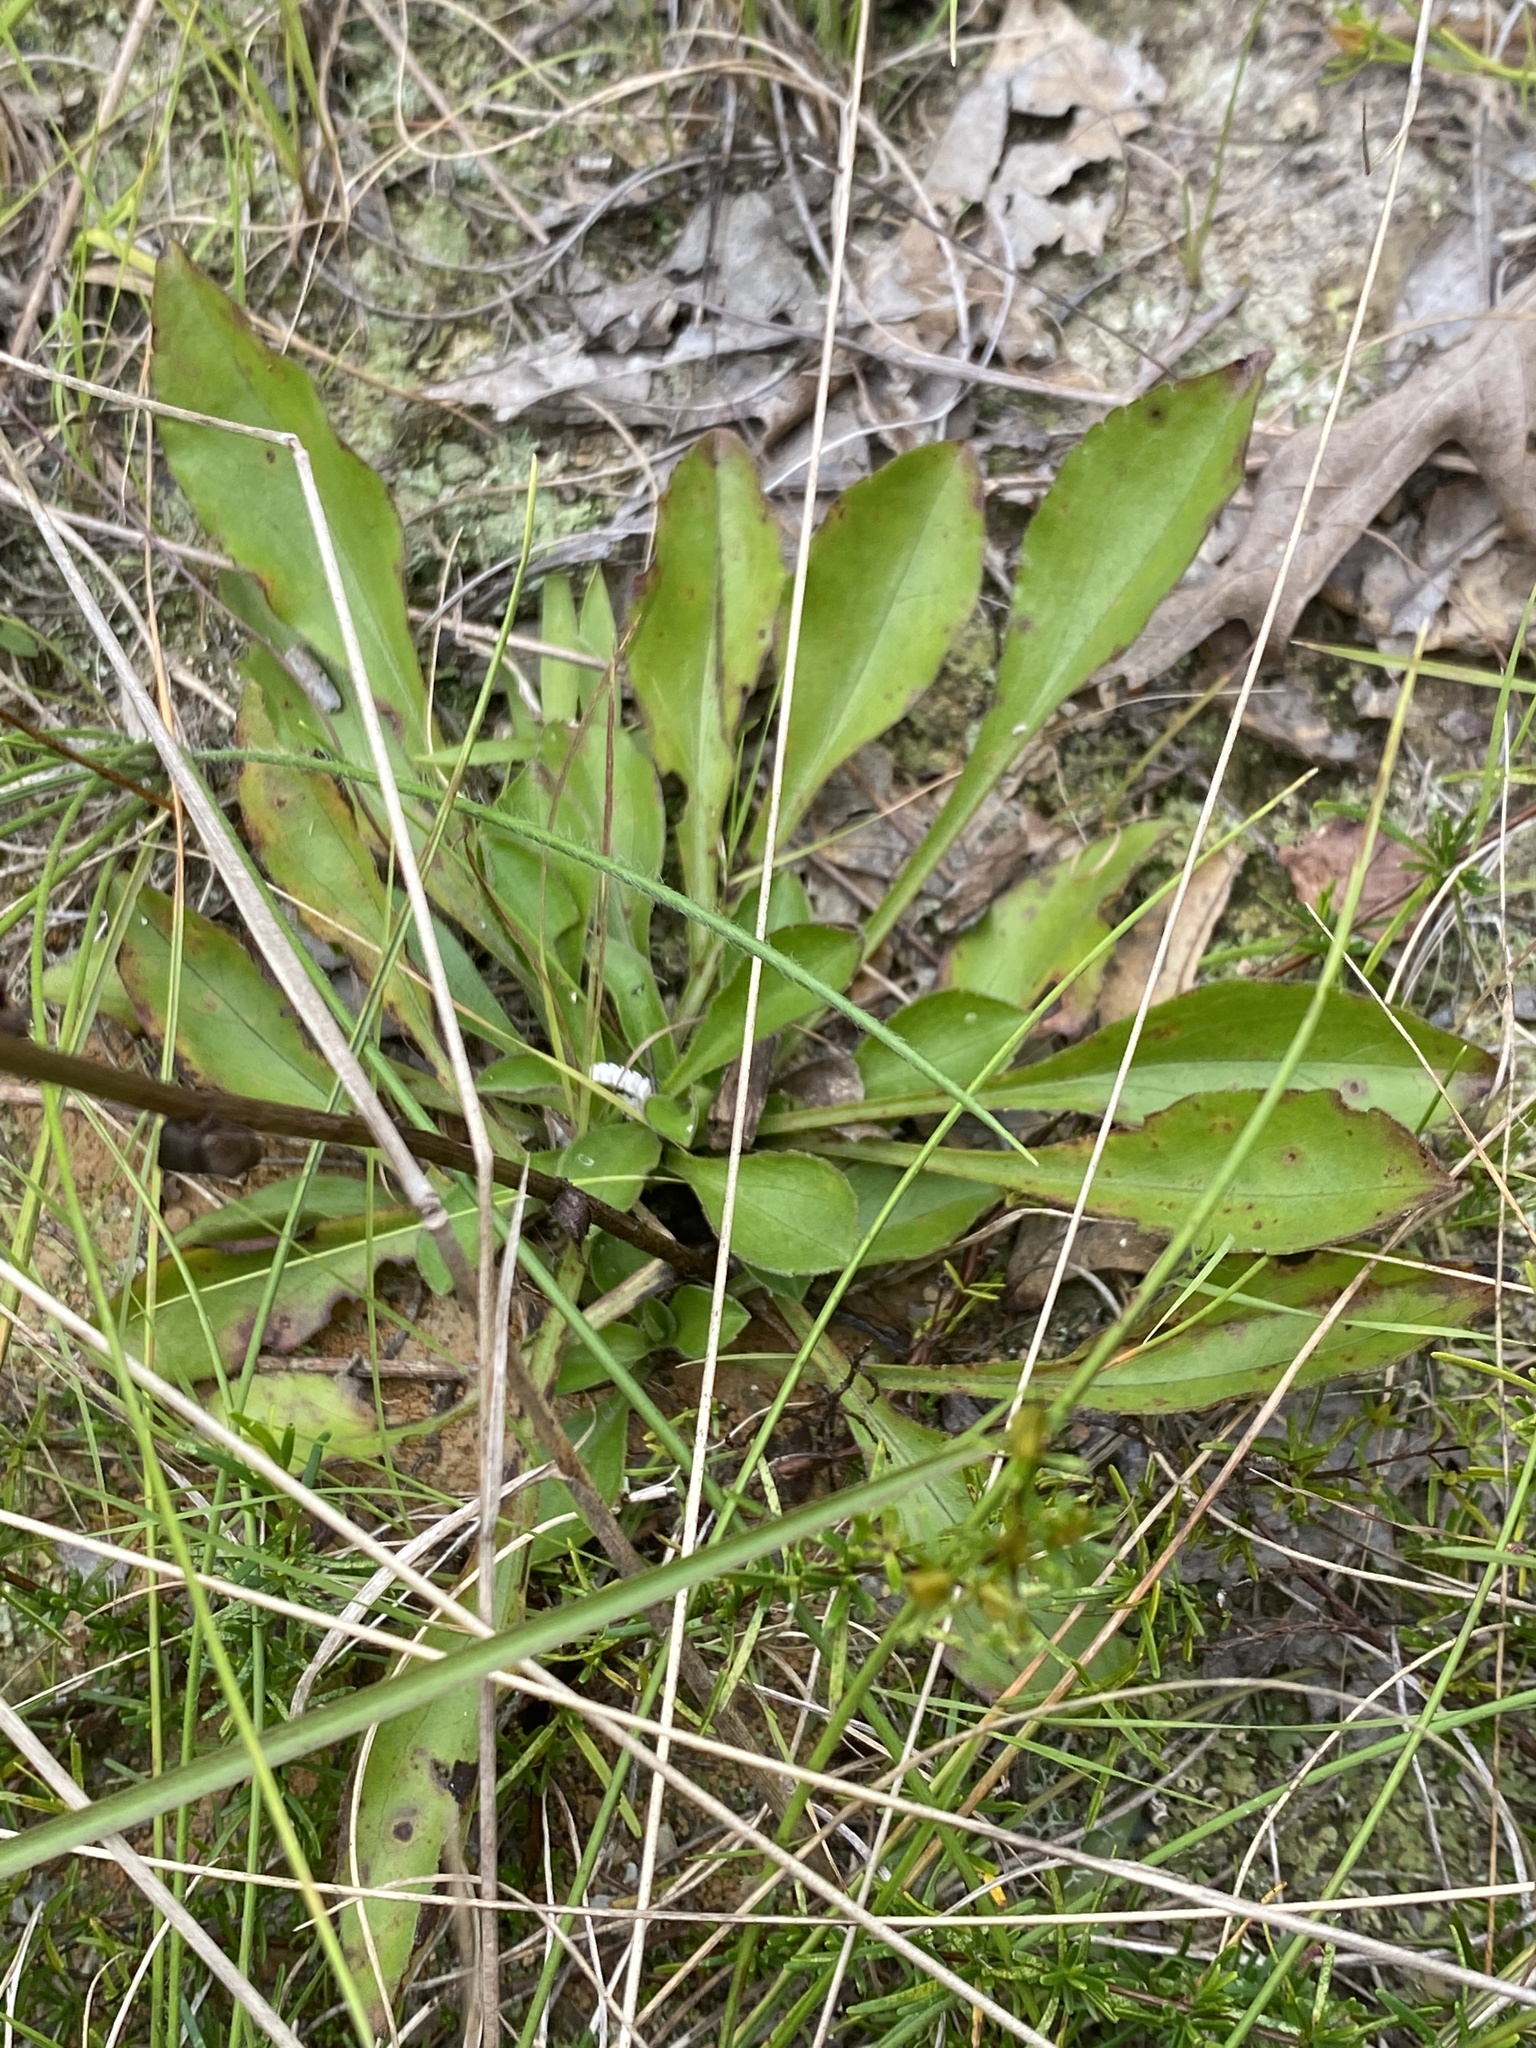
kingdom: Plantae
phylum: Tracheophyta
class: Magnoliopsida
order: Asterales
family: Asteraceae
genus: Sericocarpus
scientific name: Sericocarpus asteroides
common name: Toothed white-top aster
